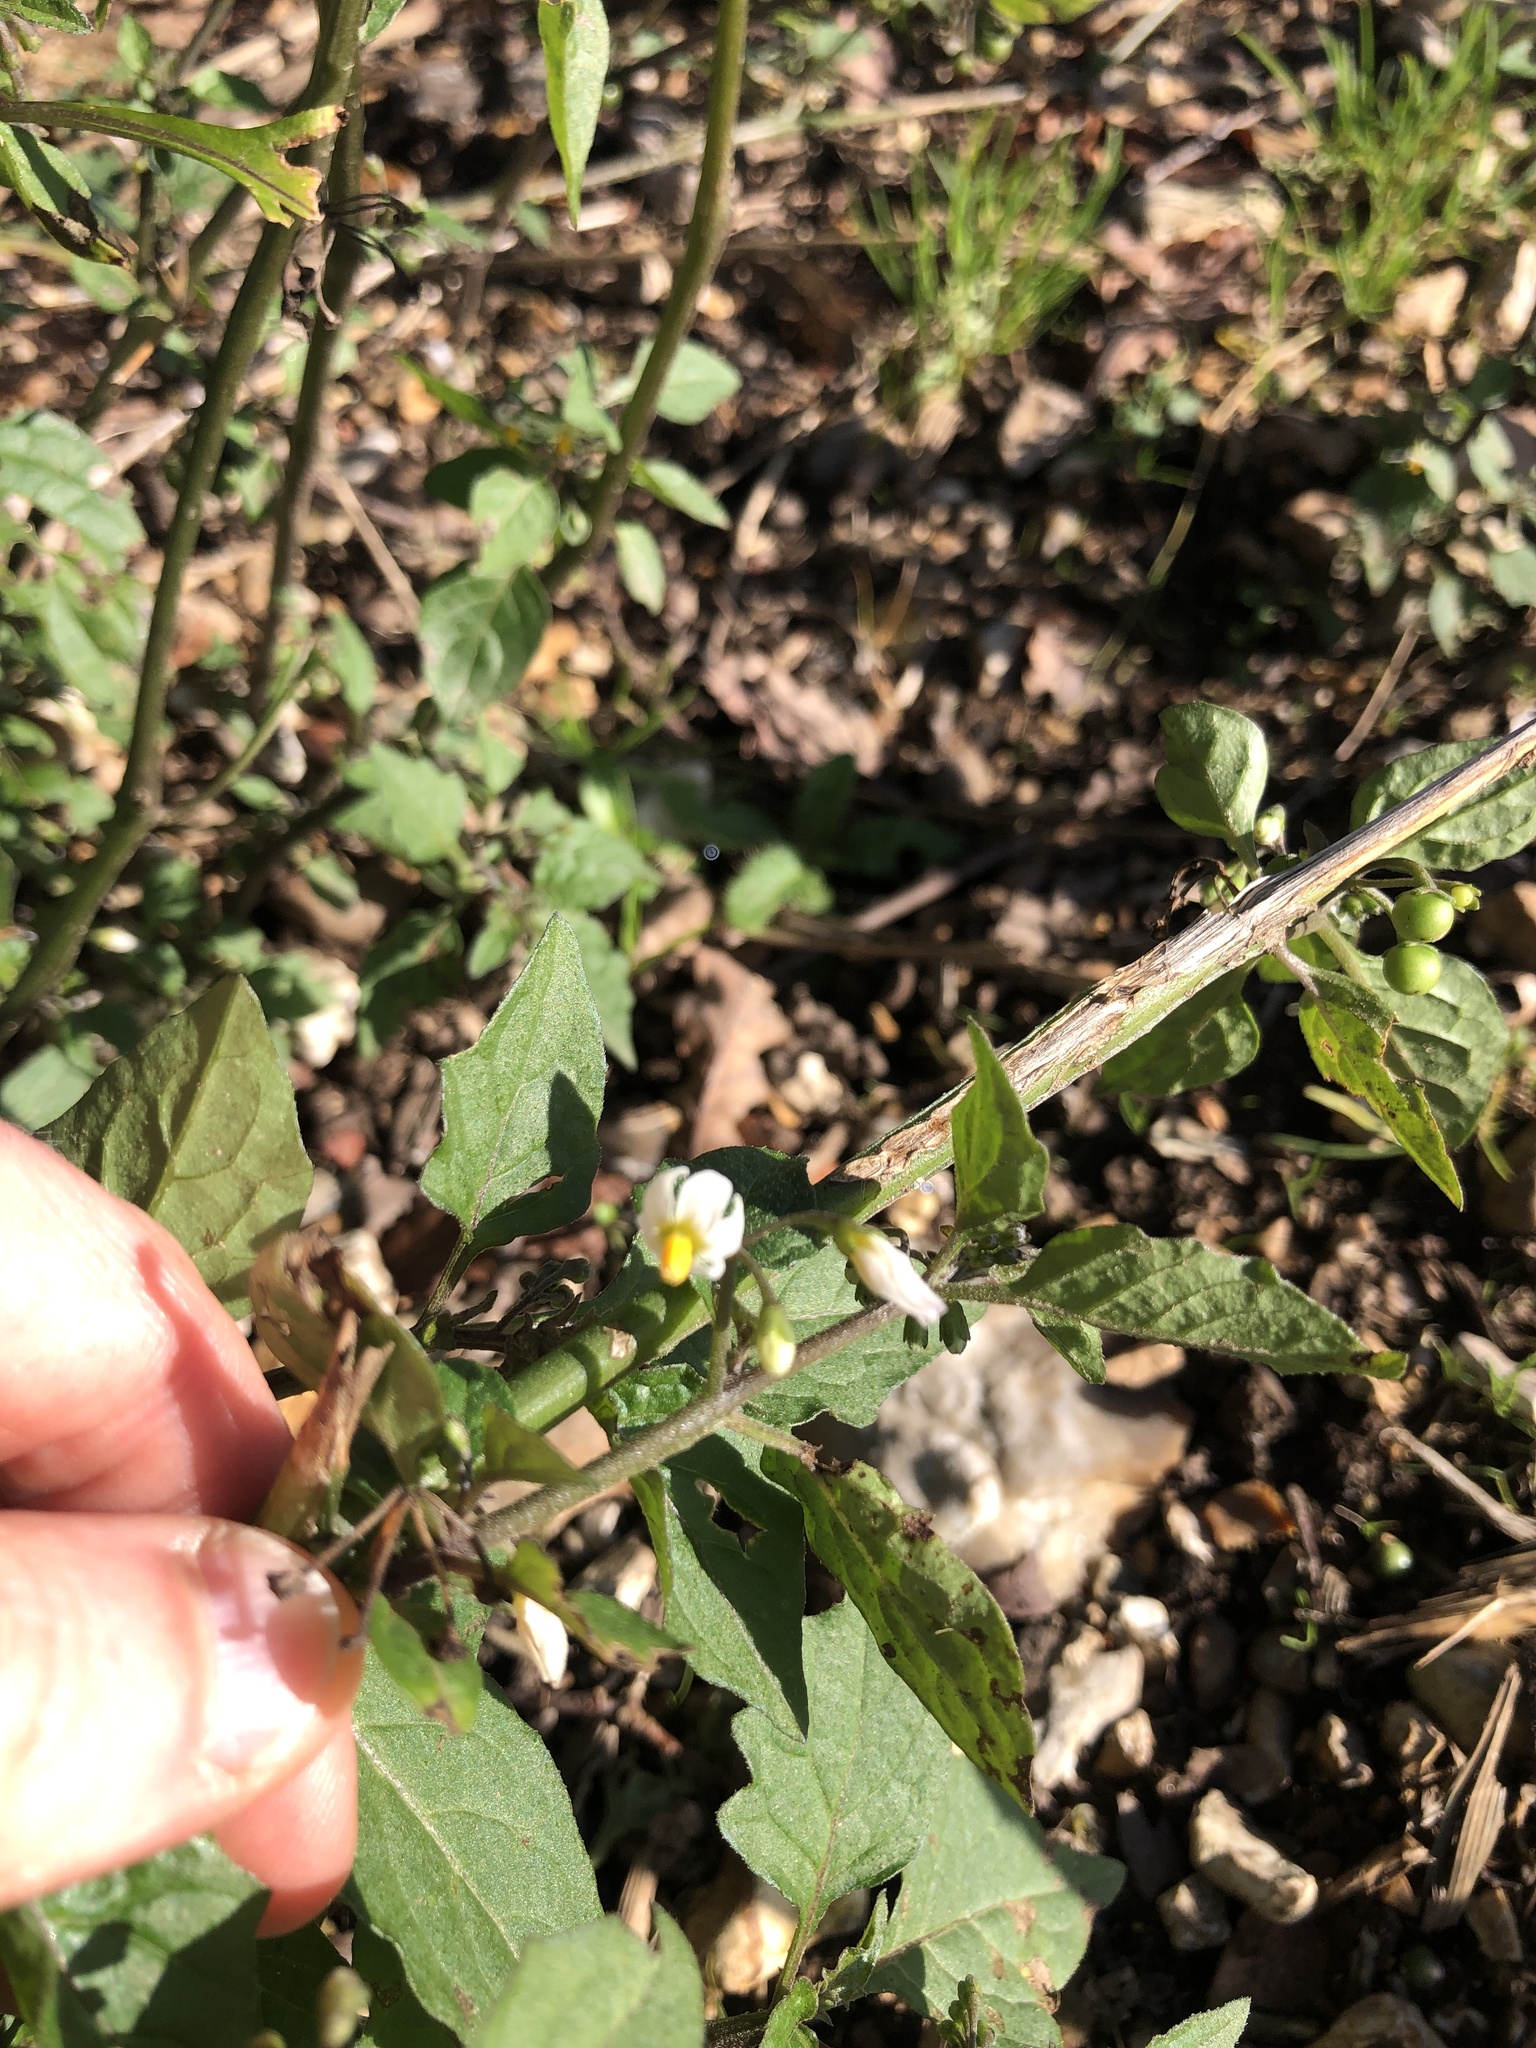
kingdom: Plantae
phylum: Tracheophyta
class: Magnoliopsida
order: Solanales
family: Solanaceae
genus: Solanum
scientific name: Solanum nigrum
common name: Black nightshade
